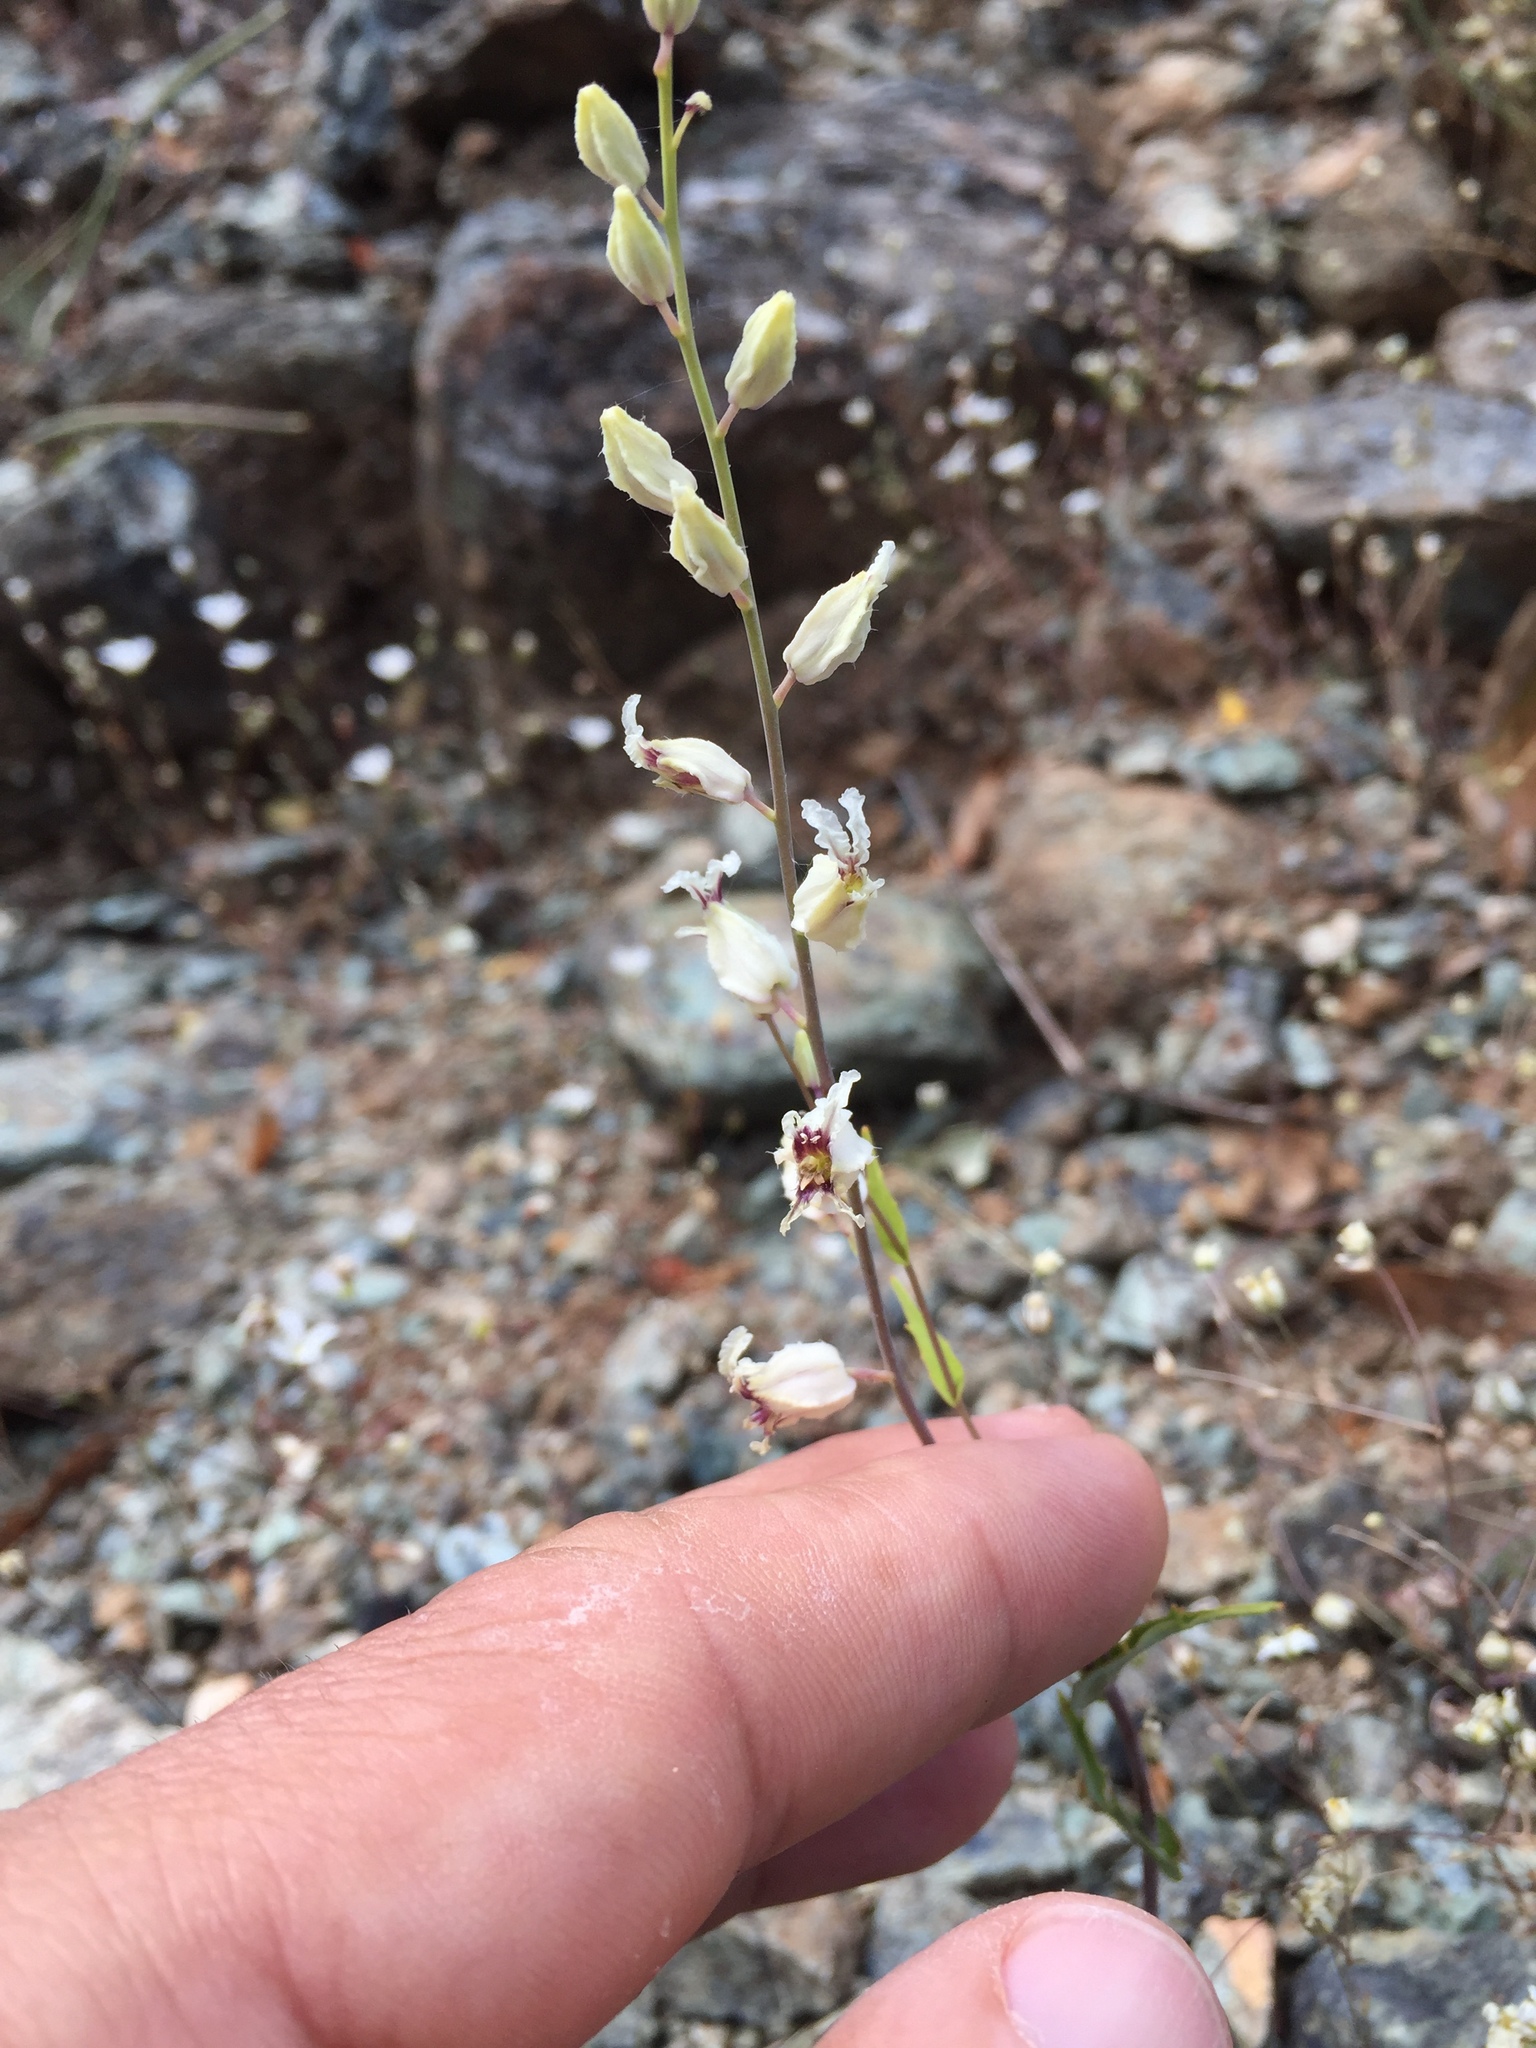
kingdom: Plantae
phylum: Tracheophyta
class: Magnoliopsida
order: Brassicales
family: Brassicaceae
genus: Streptanthus
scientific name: Streptanthus glandulosus
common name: Jewel-flower
